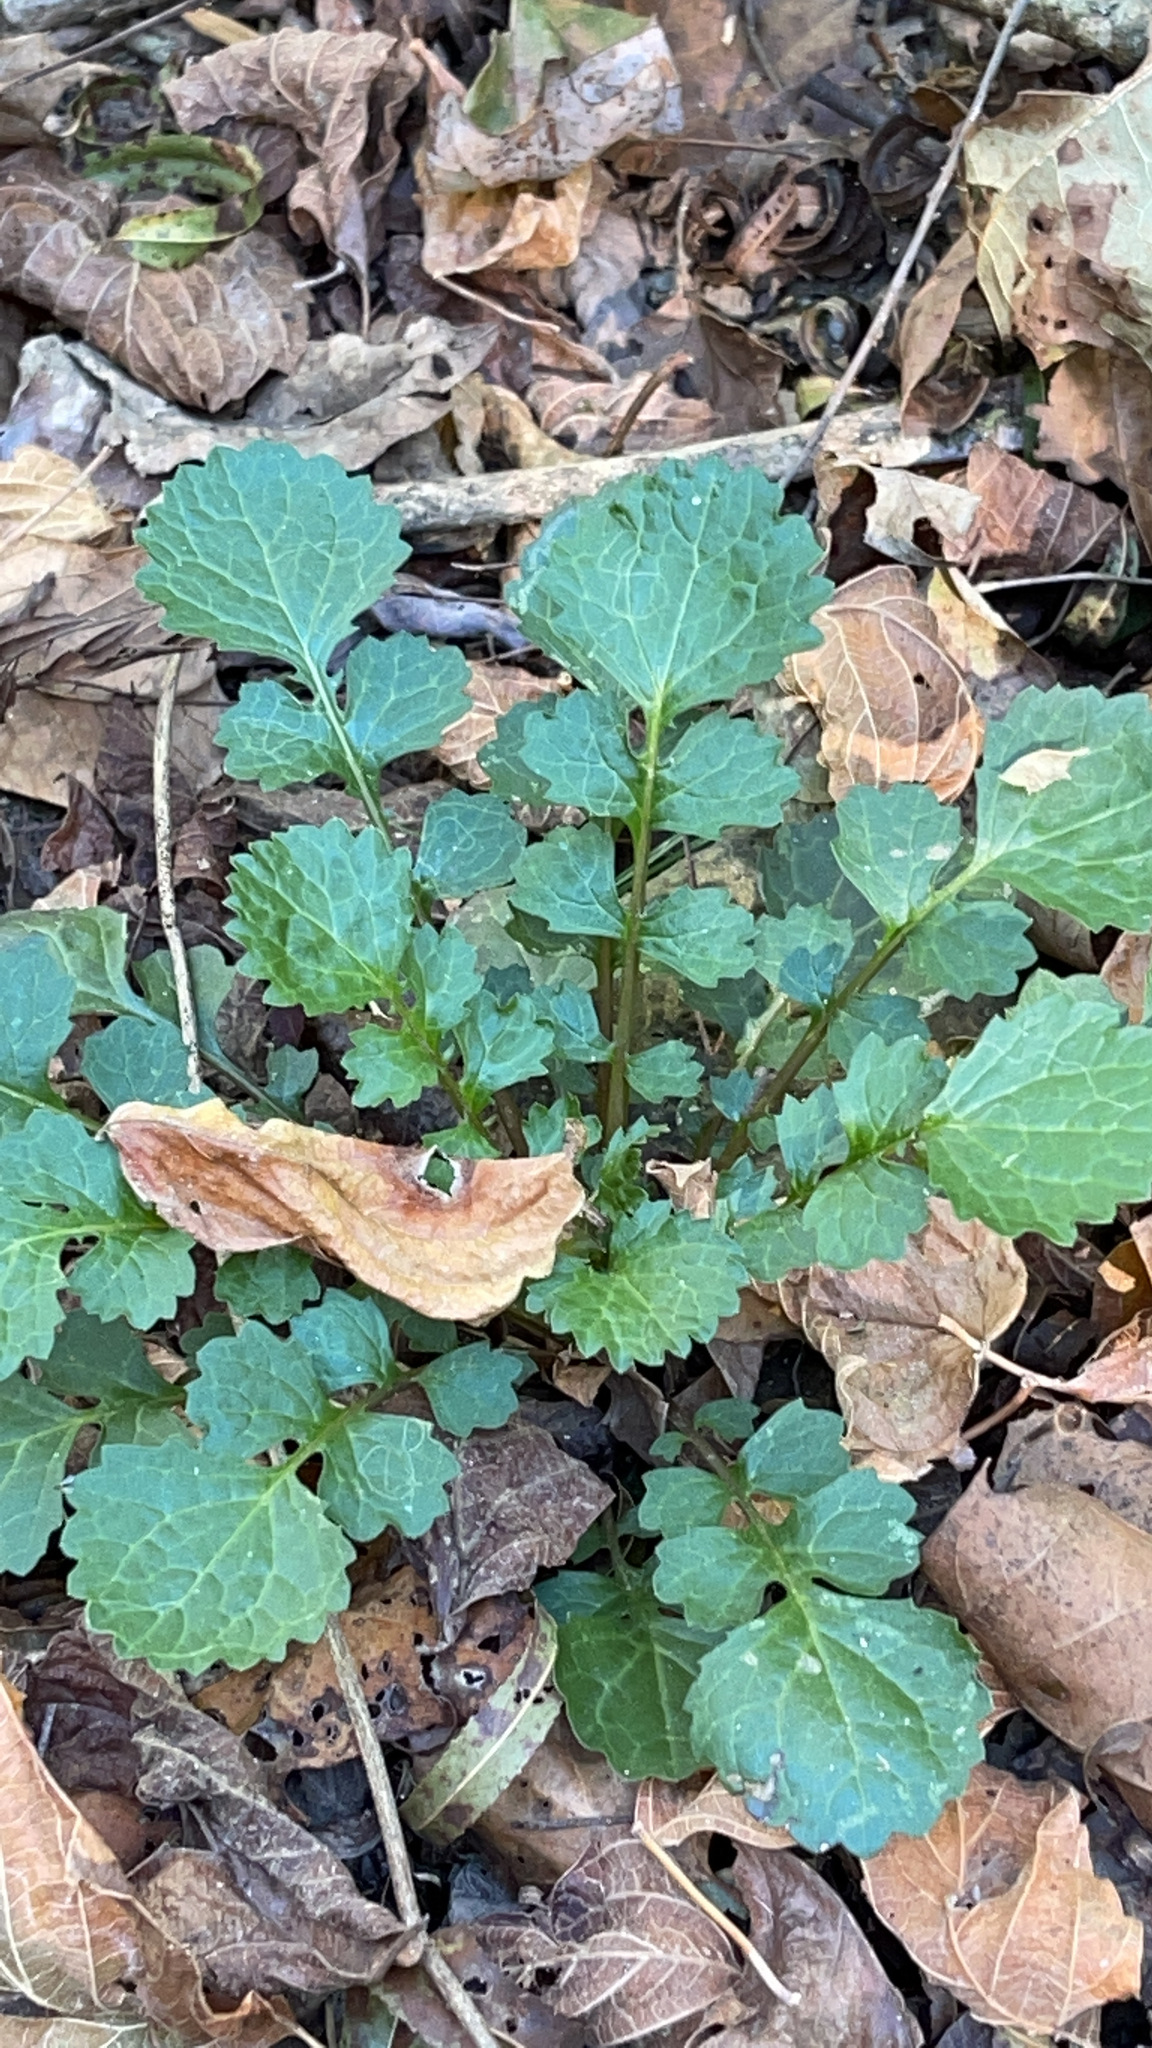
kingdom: Plantae
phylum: Tracheophyta
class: Magnoliopsida
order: Asterales
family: Asteraceae
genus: Packera
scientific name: Packera glabella
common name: Butterweed
